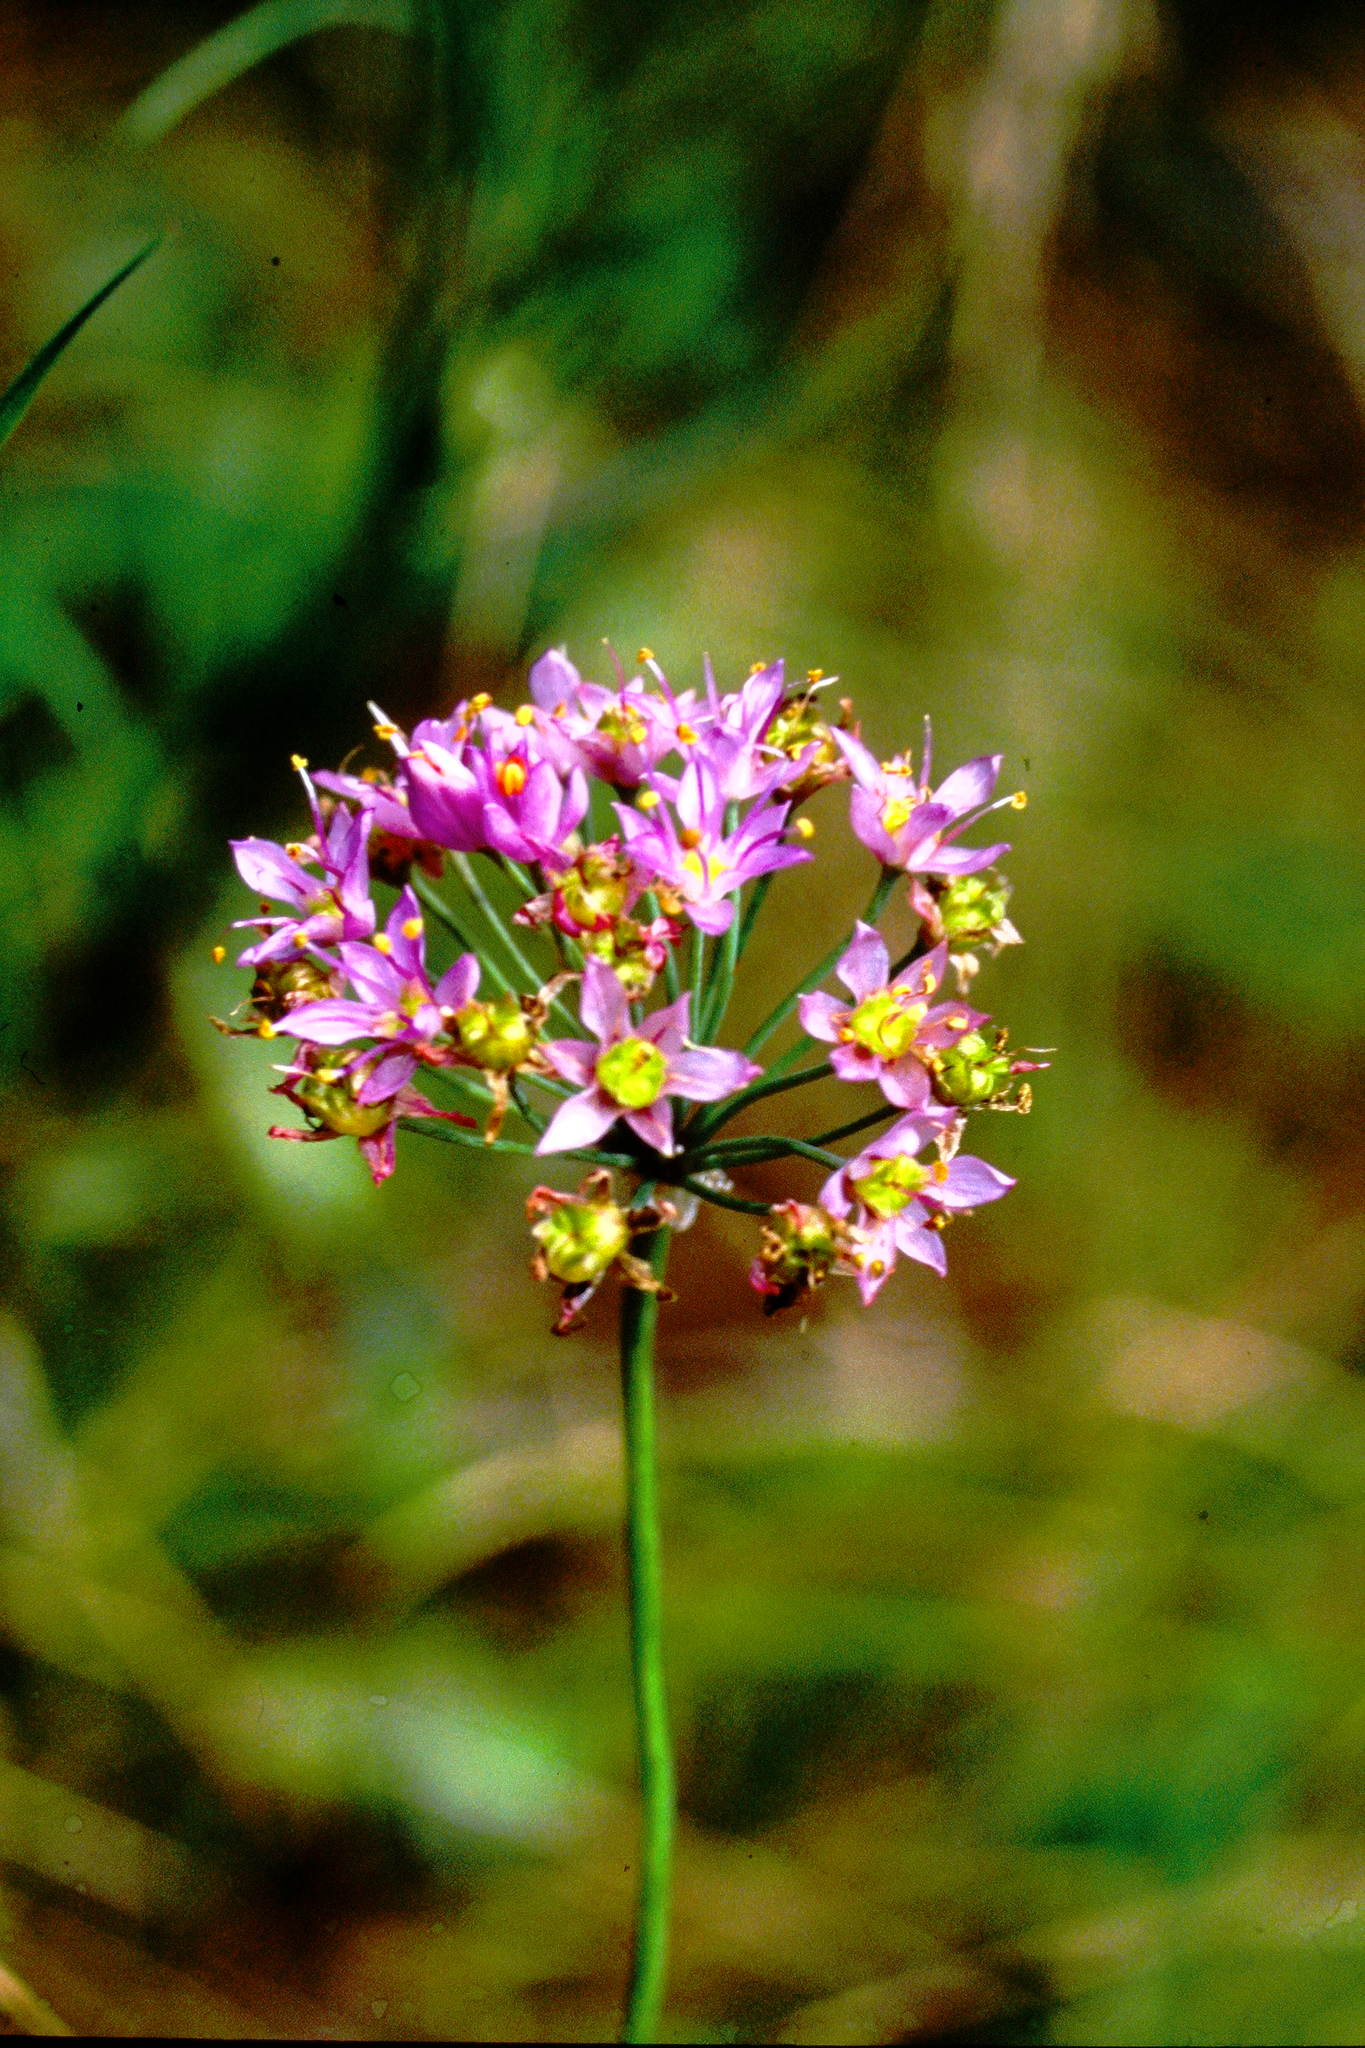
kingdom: Plantae
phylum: Tracheophyta
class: Liliopsida
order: Asparagales
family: Amaryllidaceae
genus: Allium
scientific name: Allium stellatum
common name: Autumn onion
